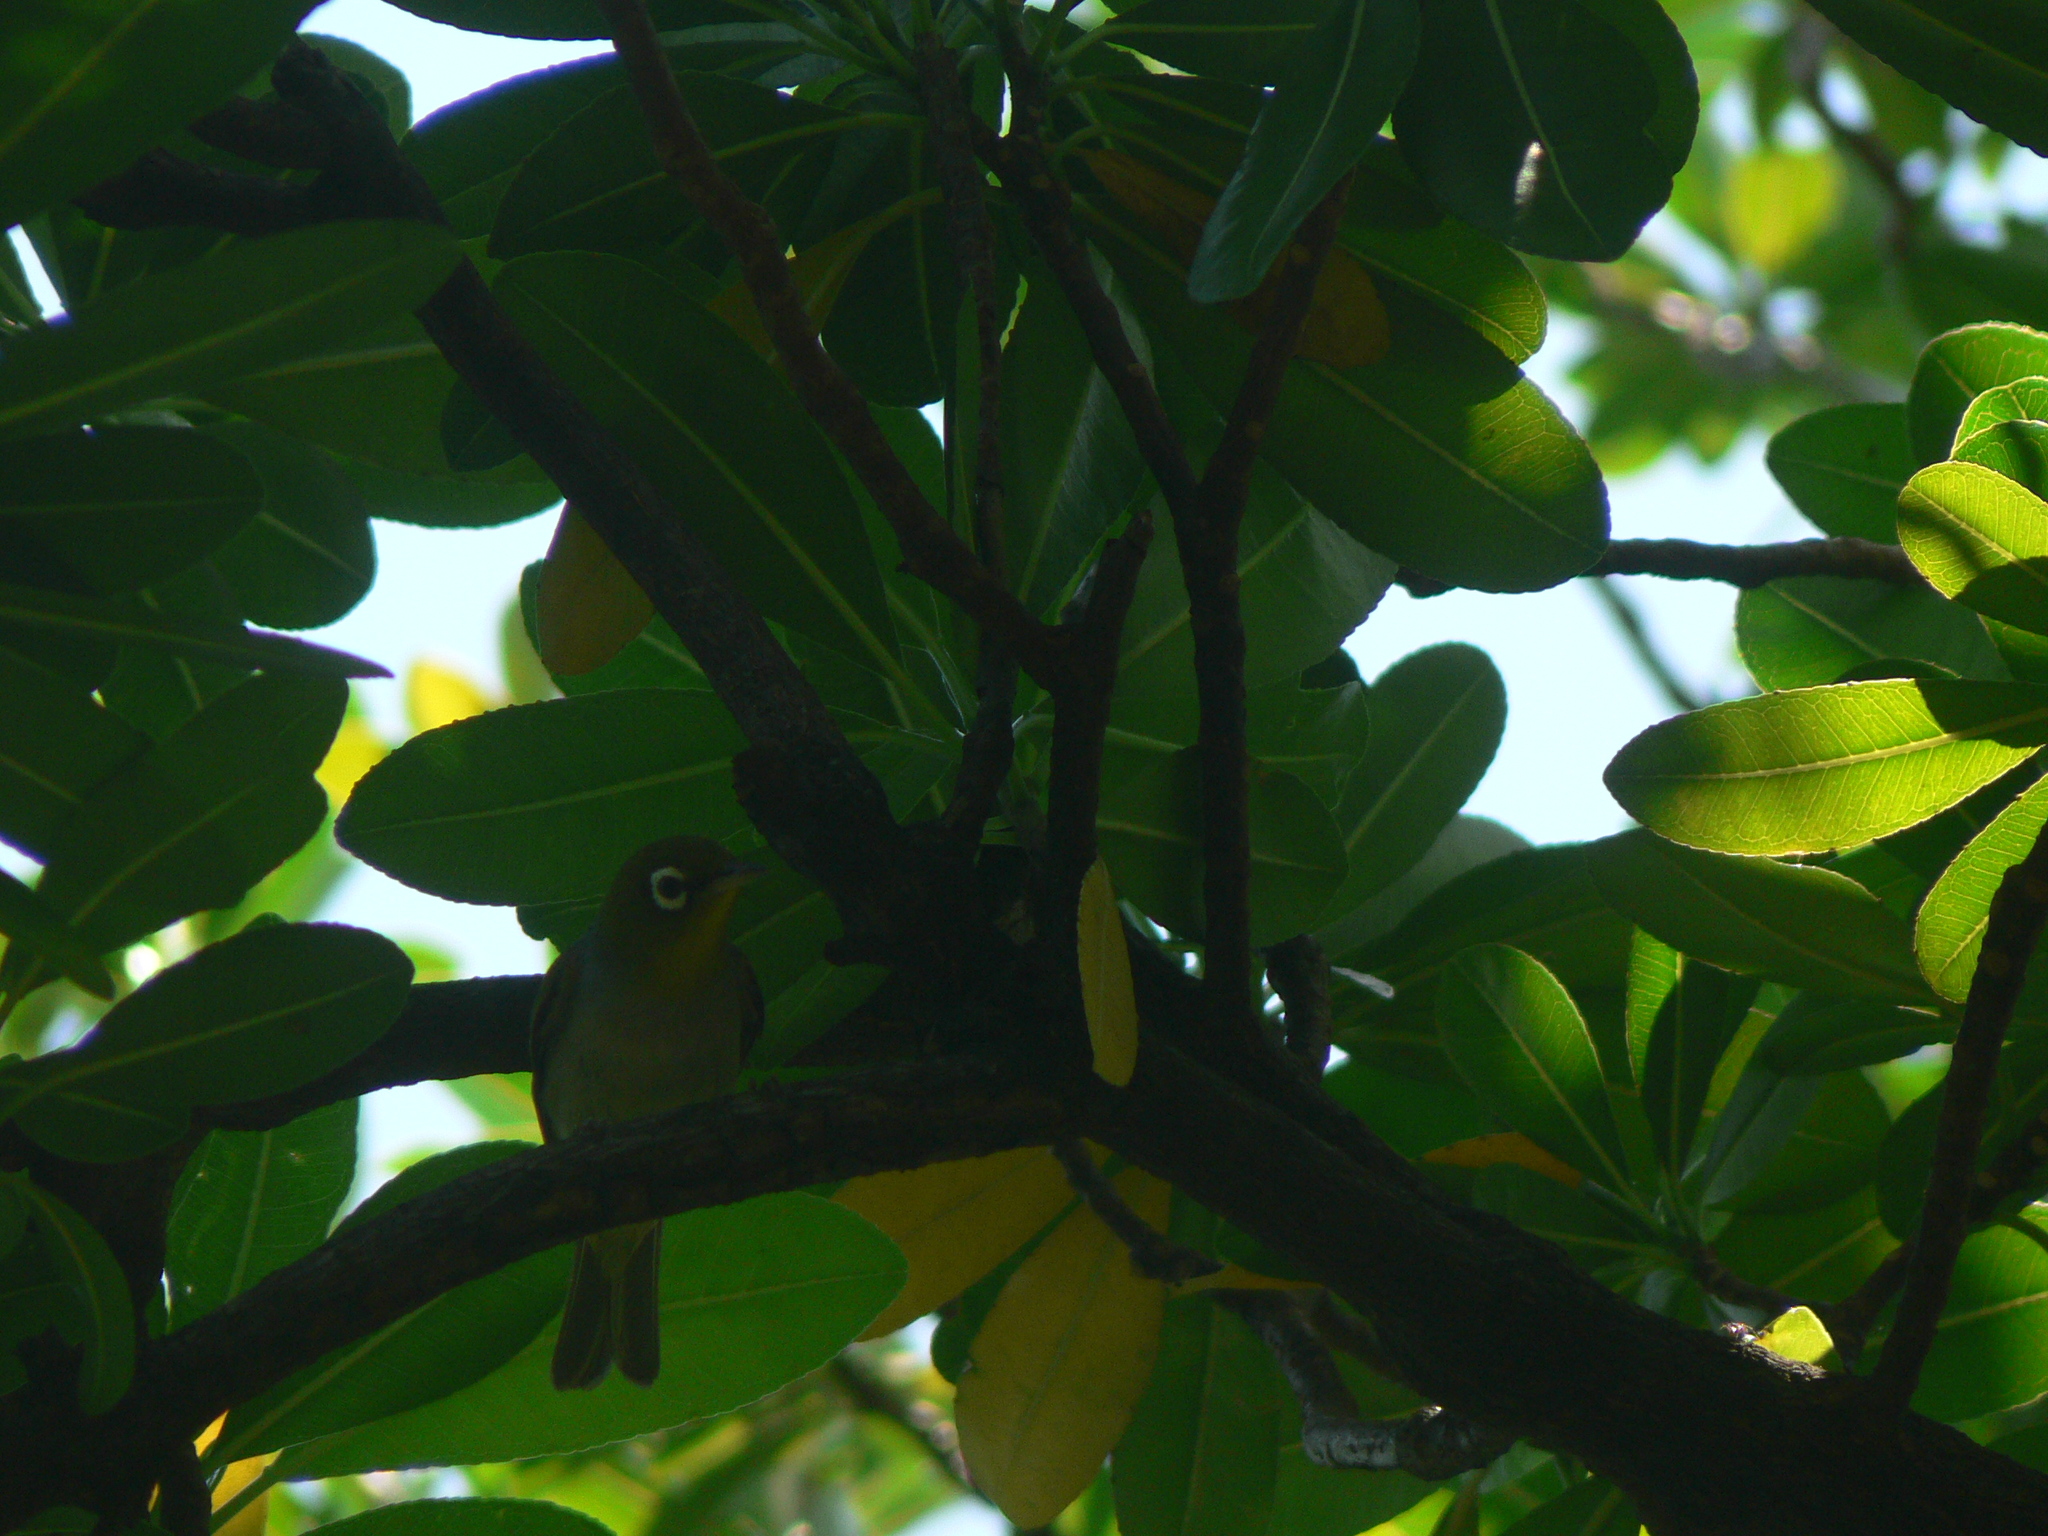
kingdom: Animalia
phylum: Chordata
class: Aves
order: Passeriformes
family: Zosteropidae
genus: Zosterops
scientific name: Zosterops lateralis
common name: Silvereye
